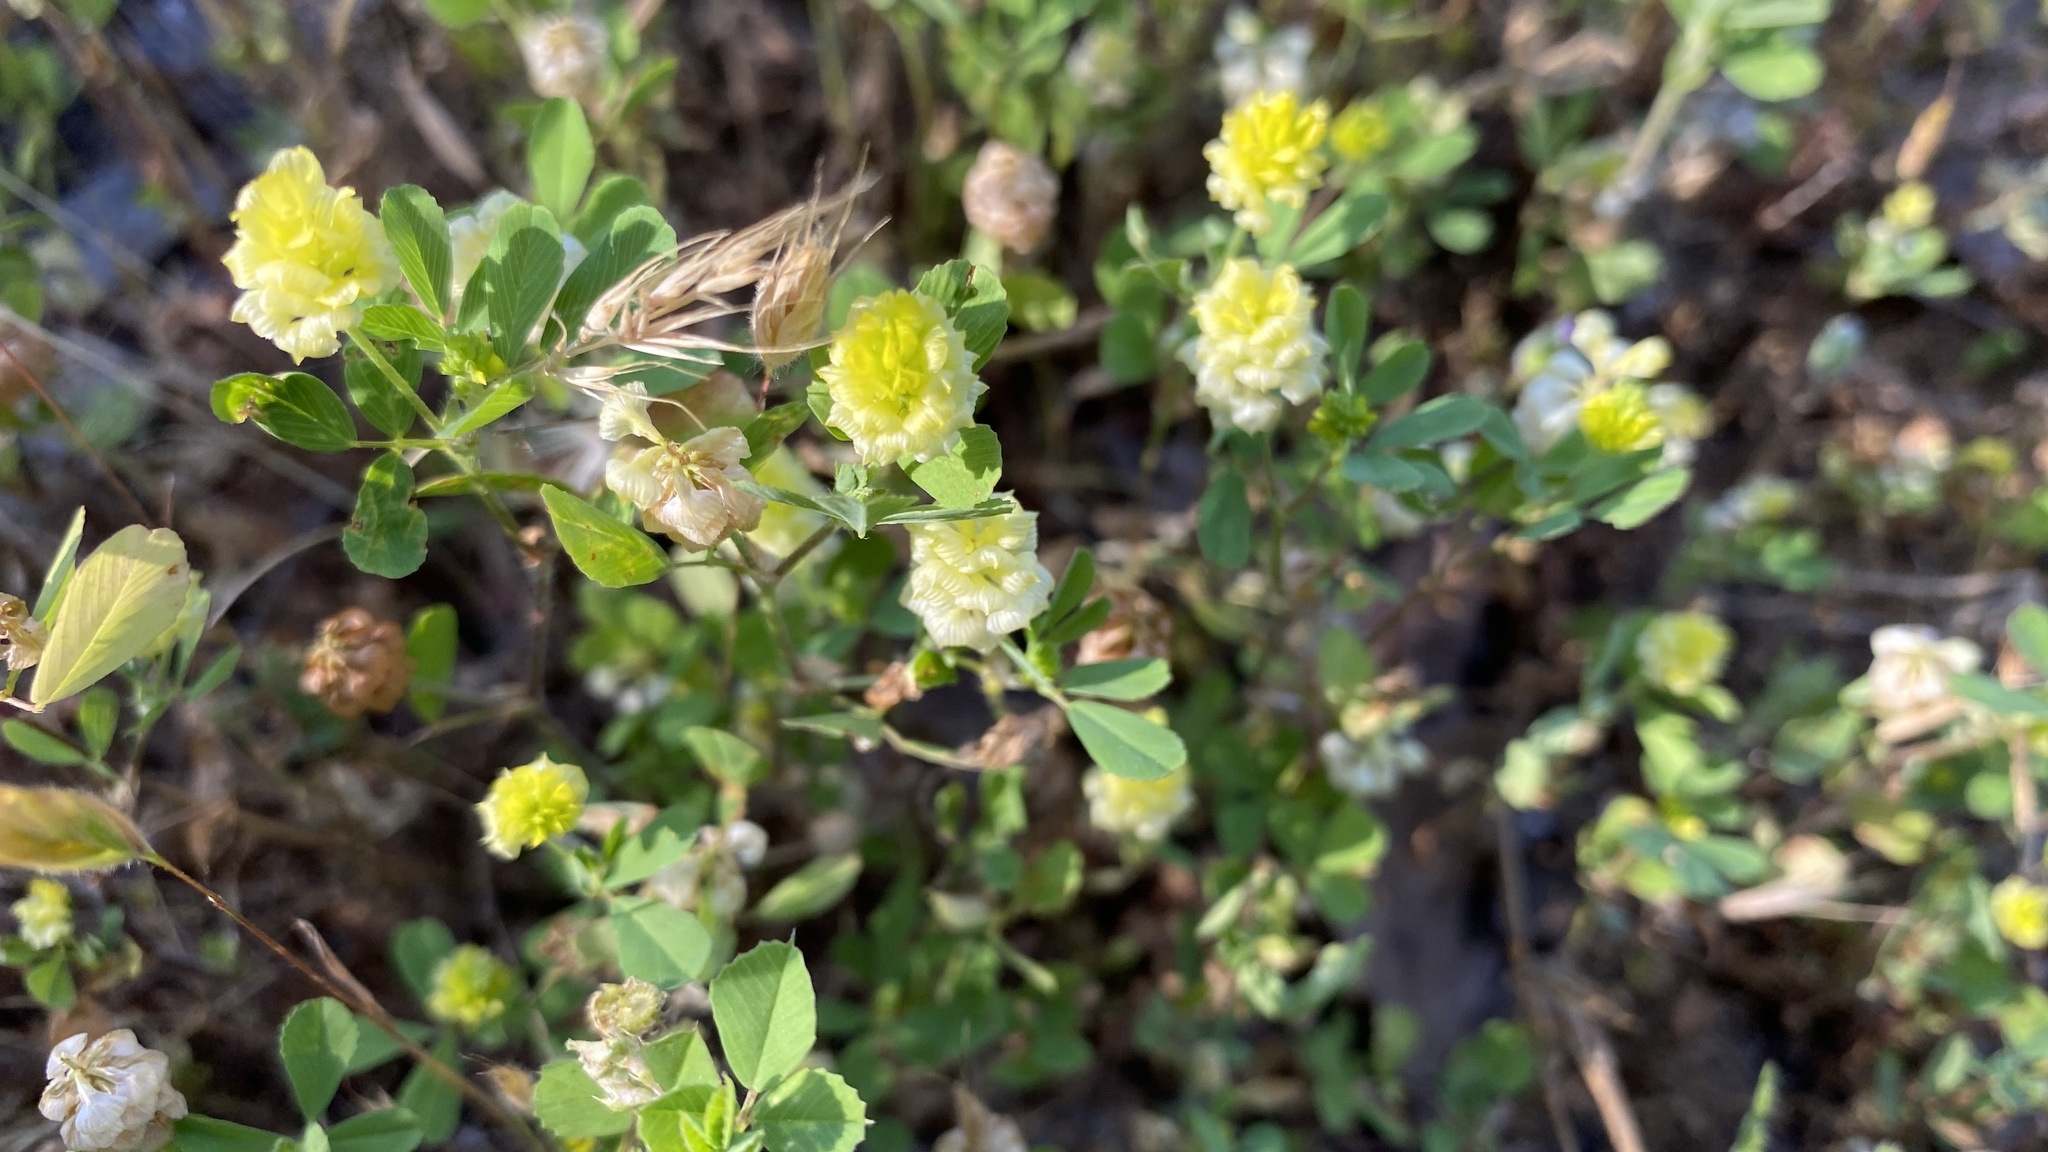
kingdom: Plantae
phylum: Tracheophyta
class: Magnoliopsida
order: Fabales
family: Fabaceae
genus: Trifolium
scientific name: Trifolium campestre
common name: Field clover
